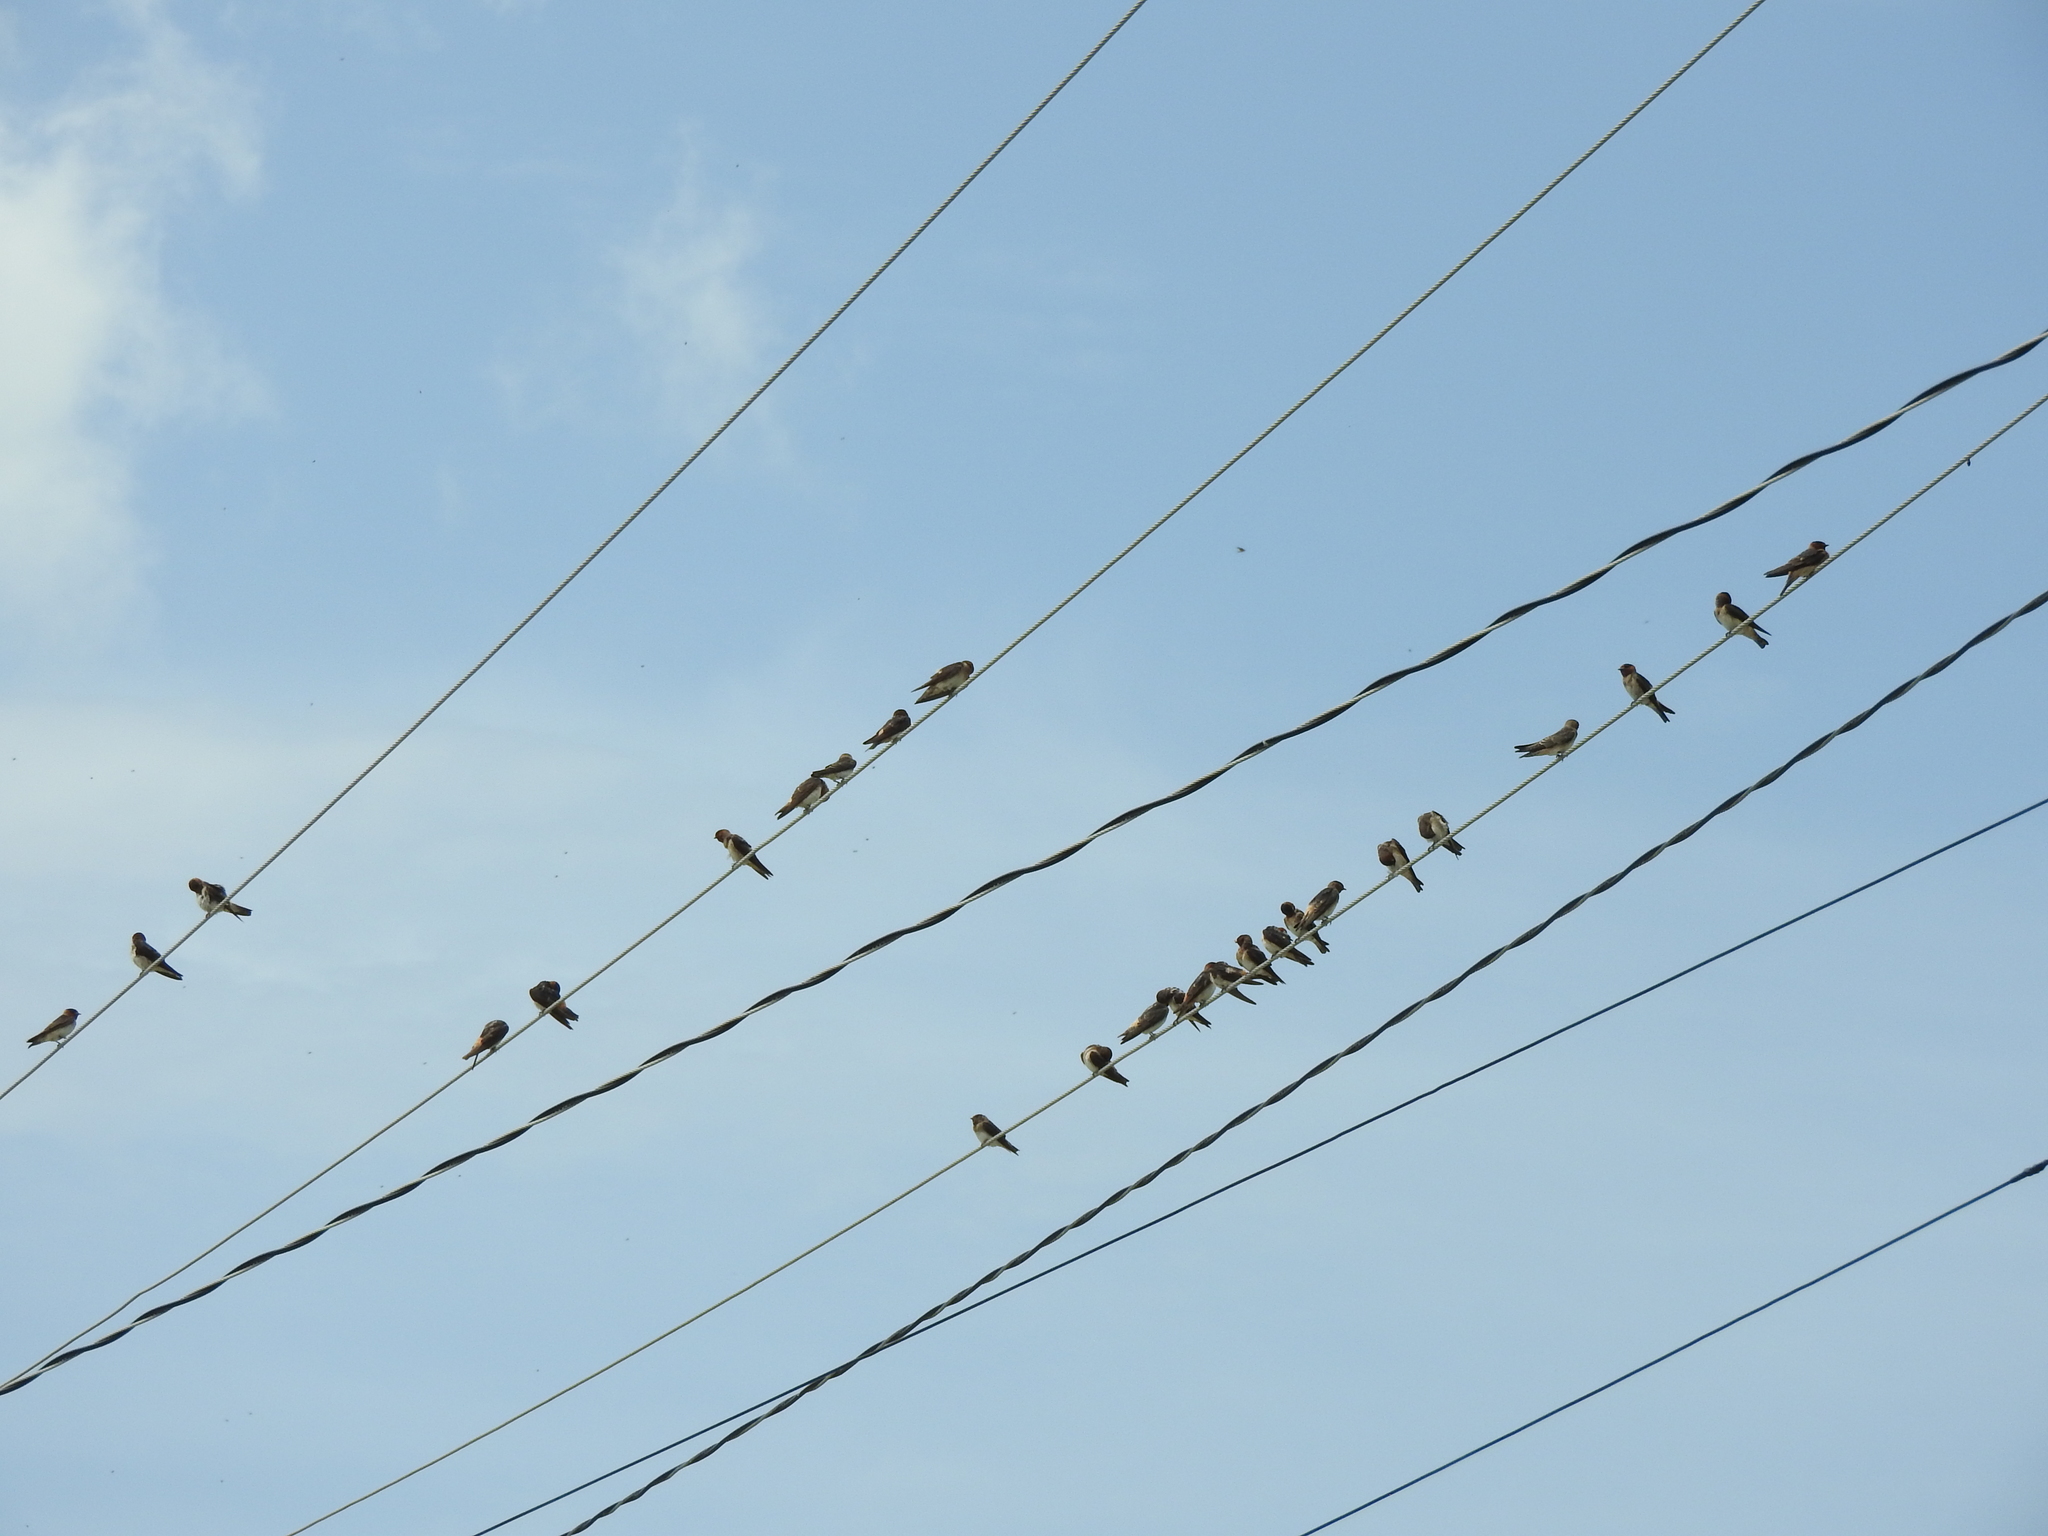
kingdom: Animalia
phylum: Chordata
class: Aves
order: Passeriformes
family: Hirundinidae
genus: Hirundo
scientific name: Hirundo rustica
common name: Barn swallow
